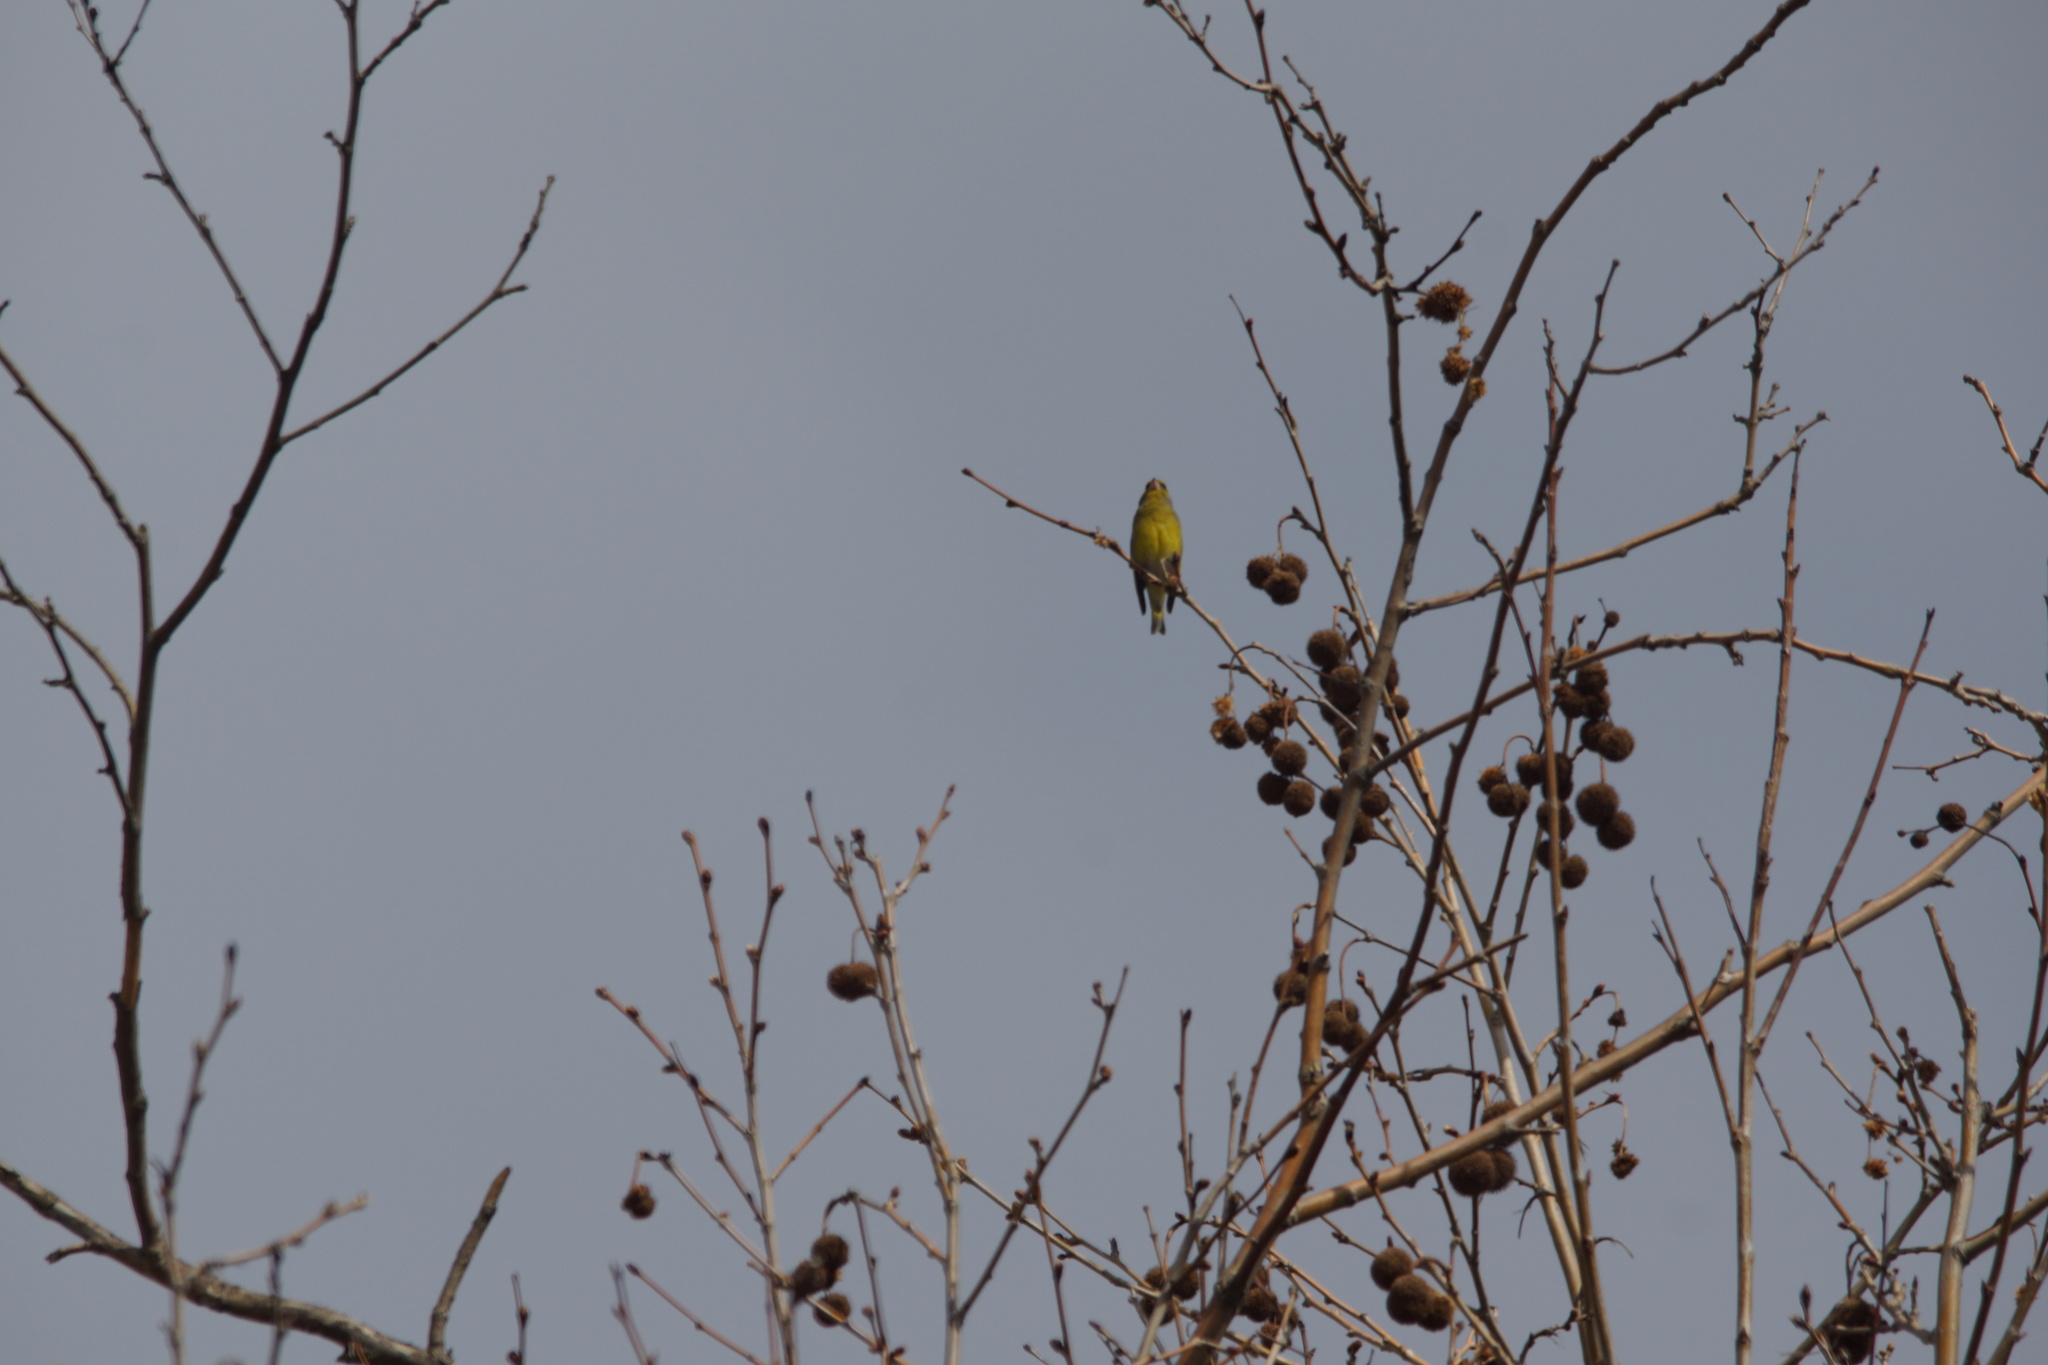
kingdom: Plantae
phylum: Tracheophyta
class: Liliopsida
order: Poales
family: Poaceae
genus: Chloris
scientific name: Chloris chloris
